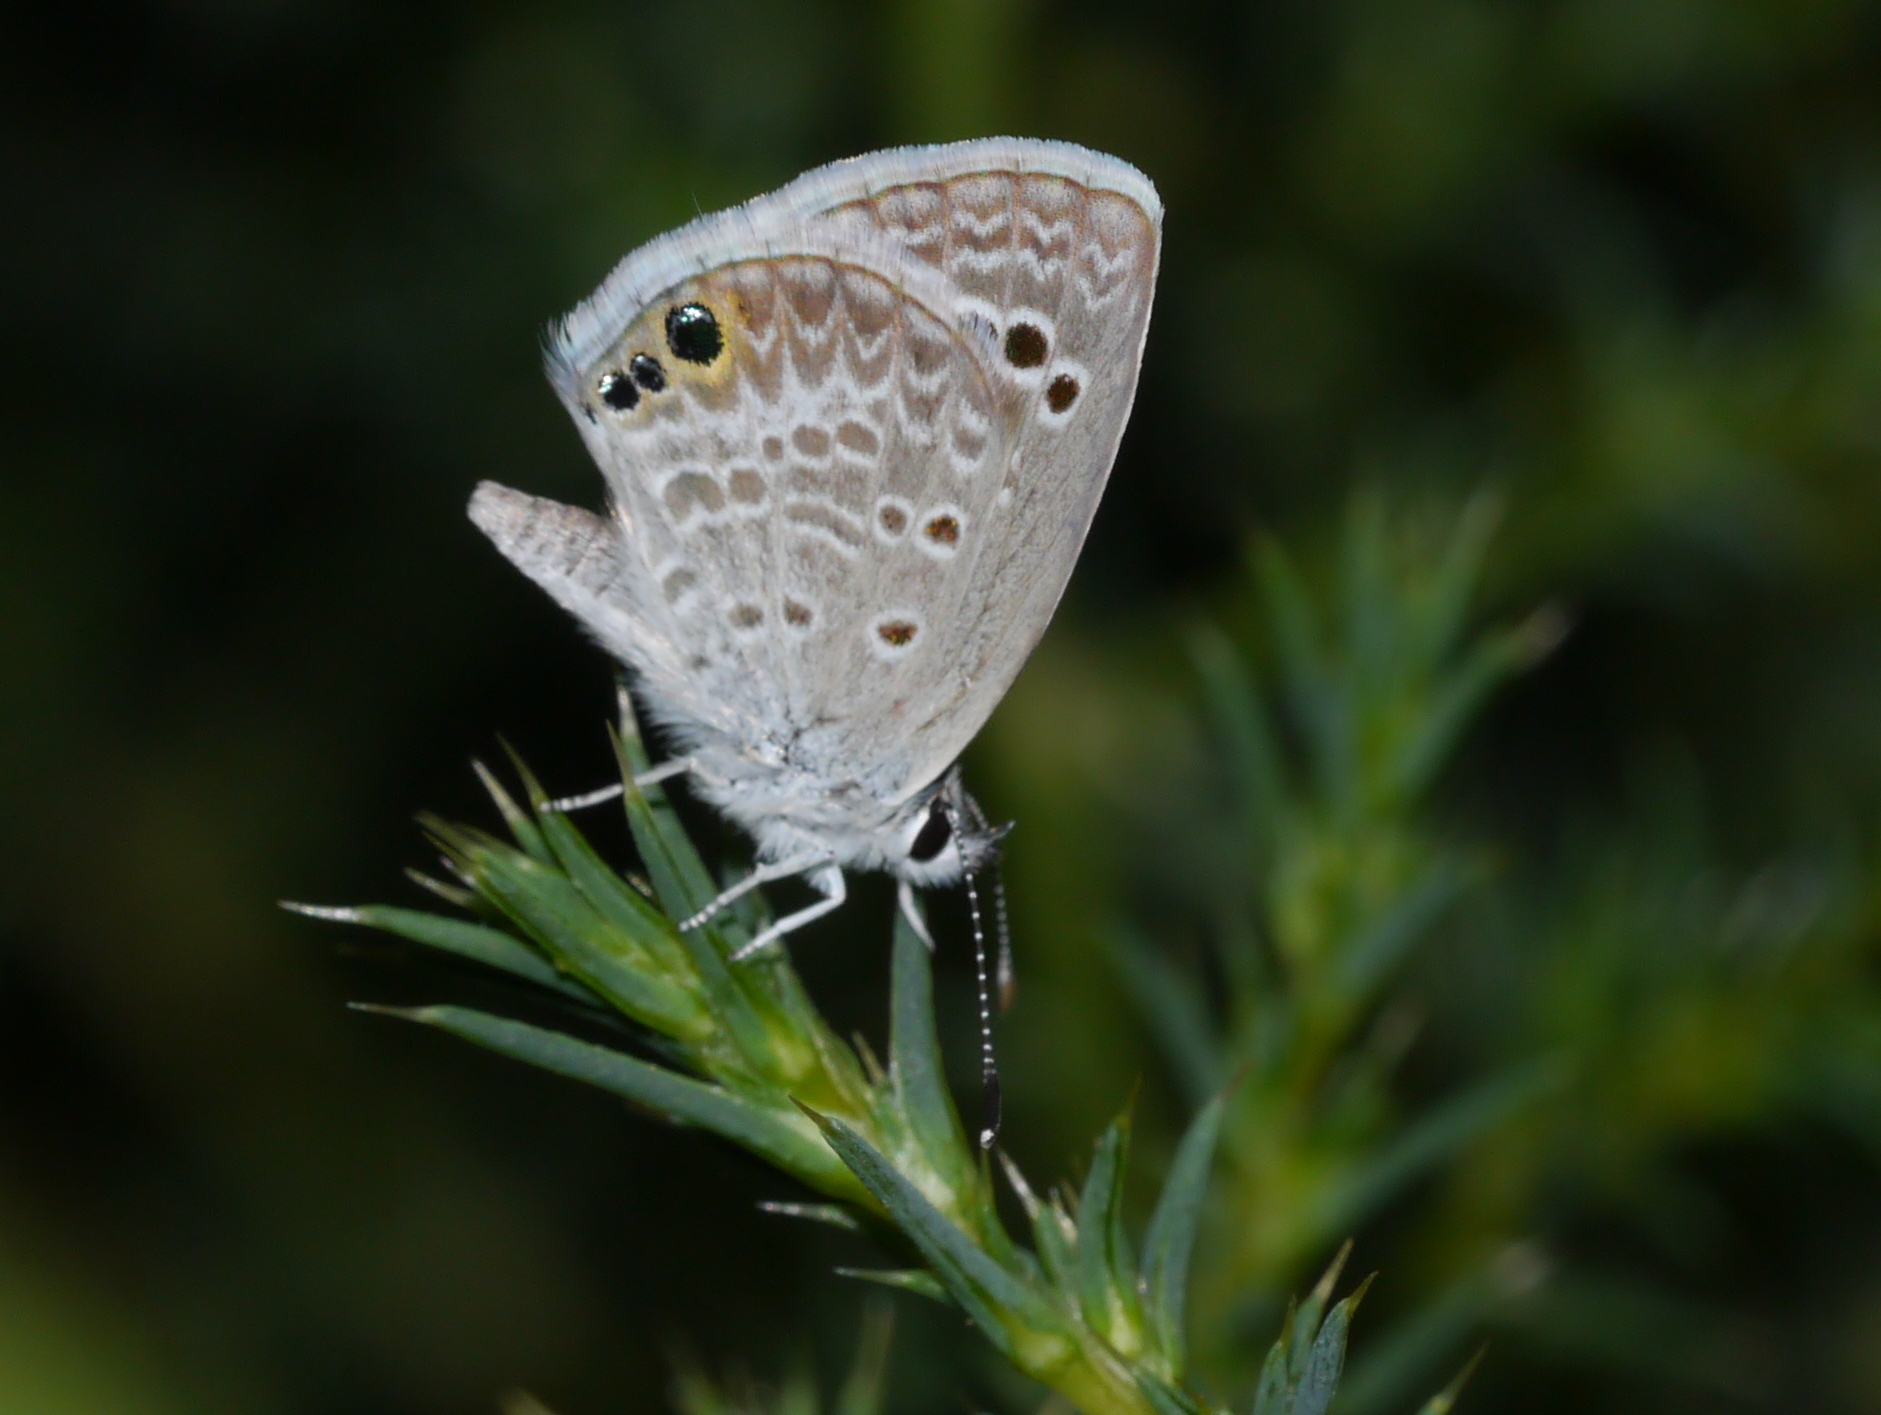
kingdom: Animalia
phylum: Arthropoda
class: Insecta
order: Lepidoptera
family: Lycaenidae
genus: Echinargus
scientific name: Echinargus isola
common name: Reakirt's blue
